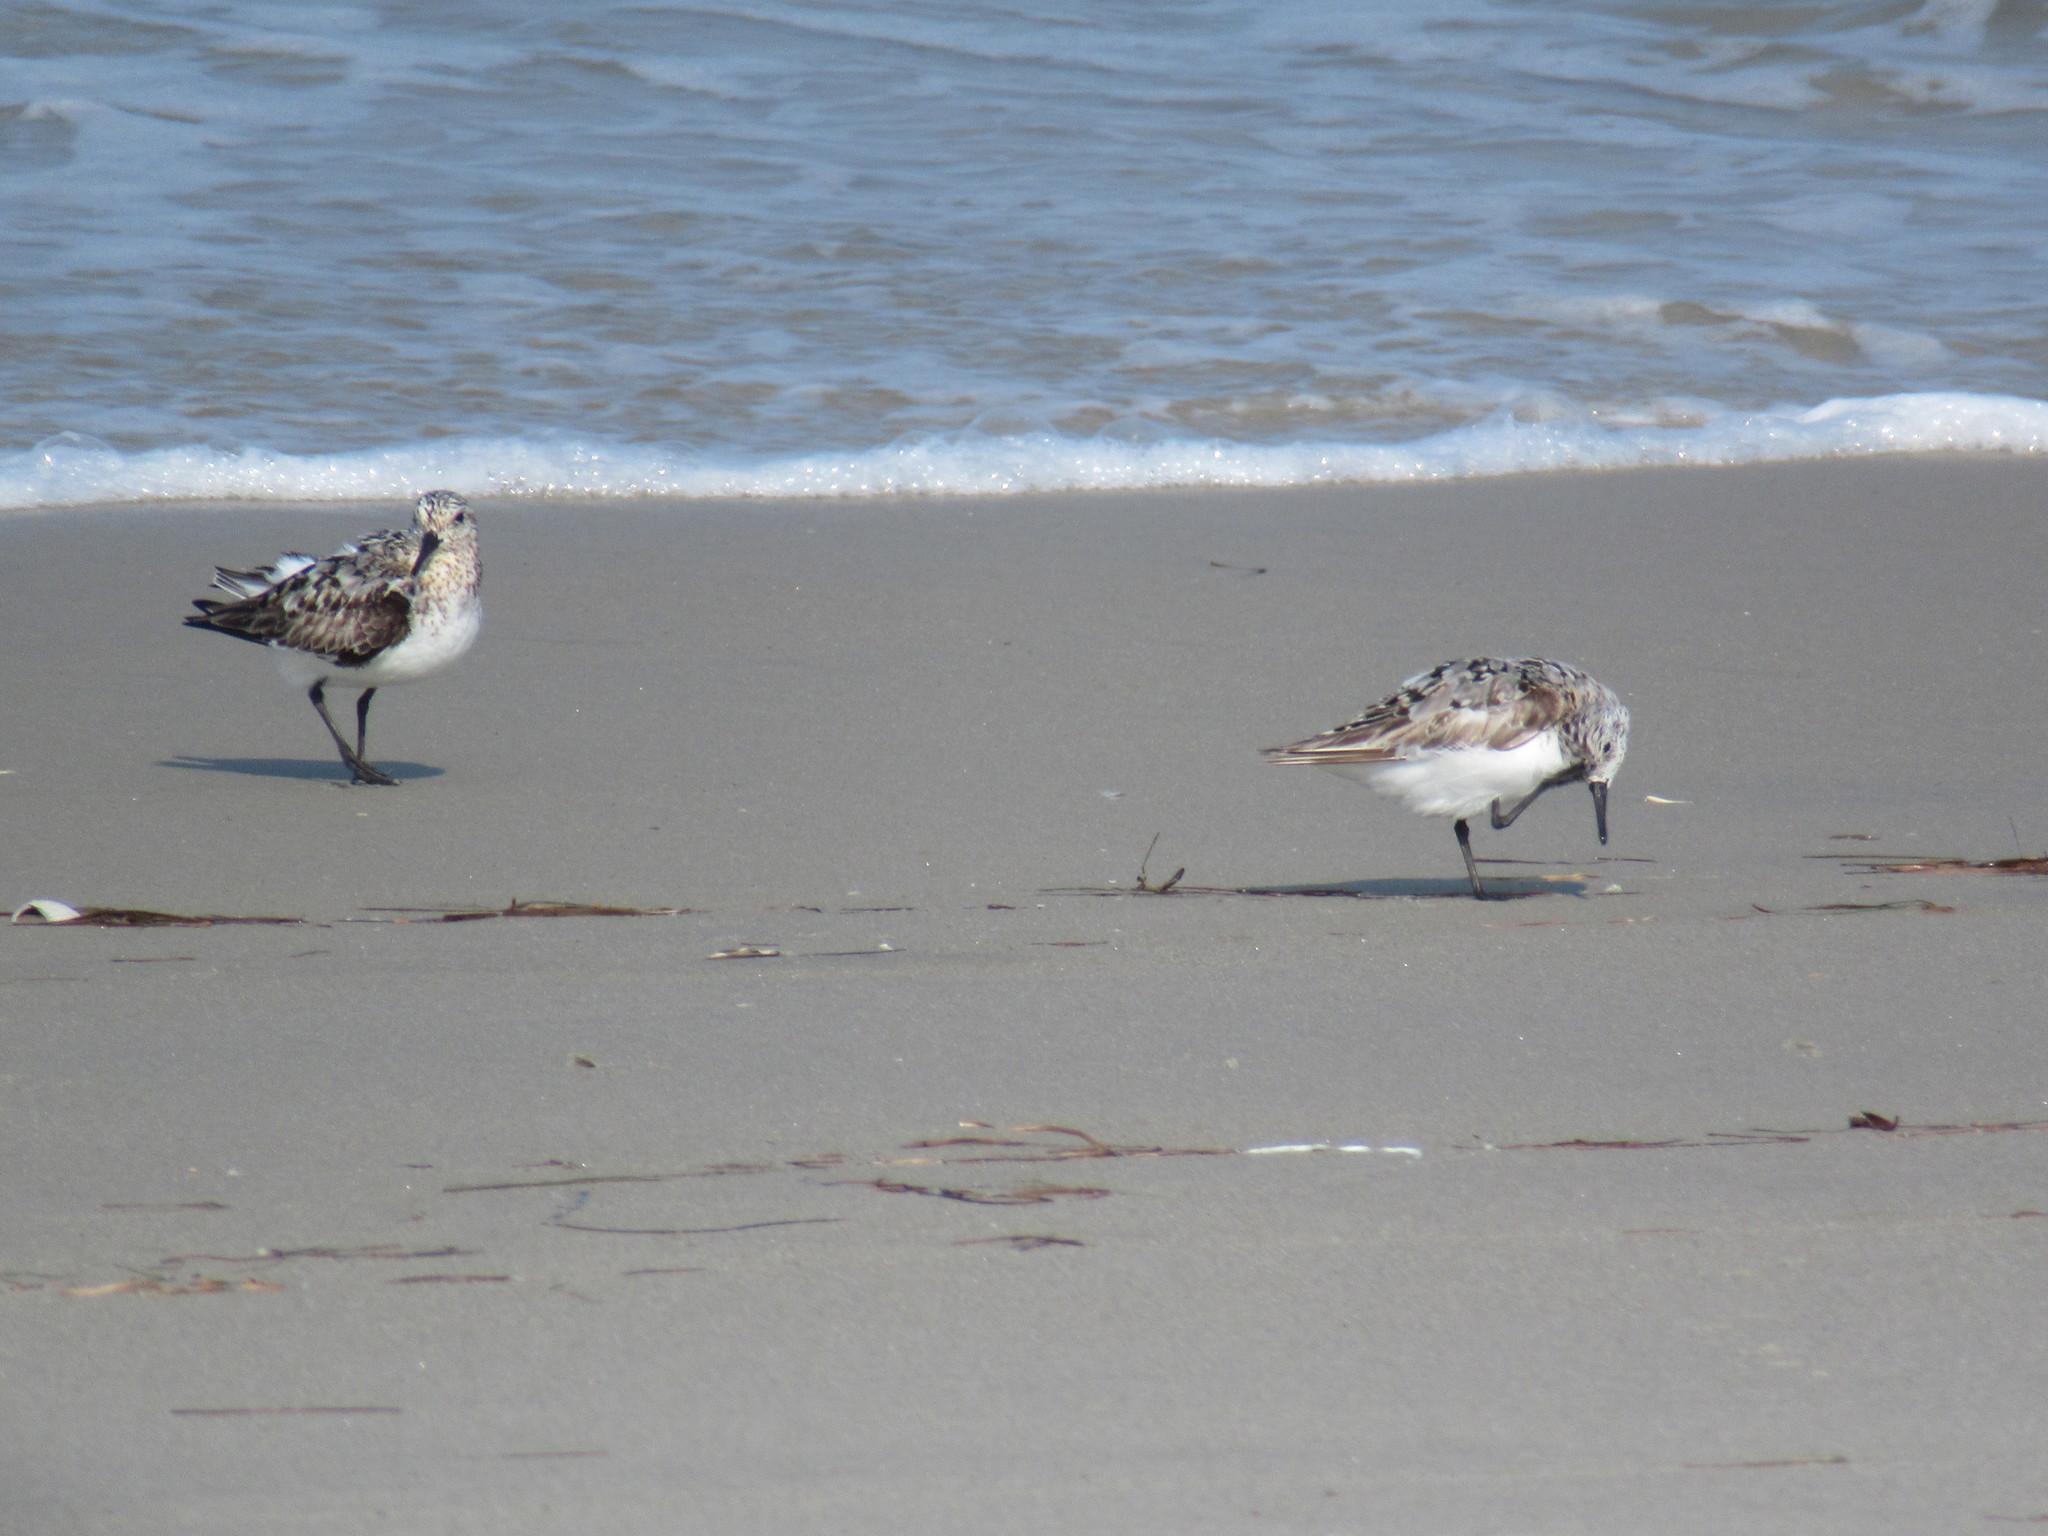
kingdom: Animalia
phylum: Chordata
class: Aves
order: Charadriiformes
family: Scolopacidae
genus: Calidris
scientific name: Calidris alba
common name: Sanderling
